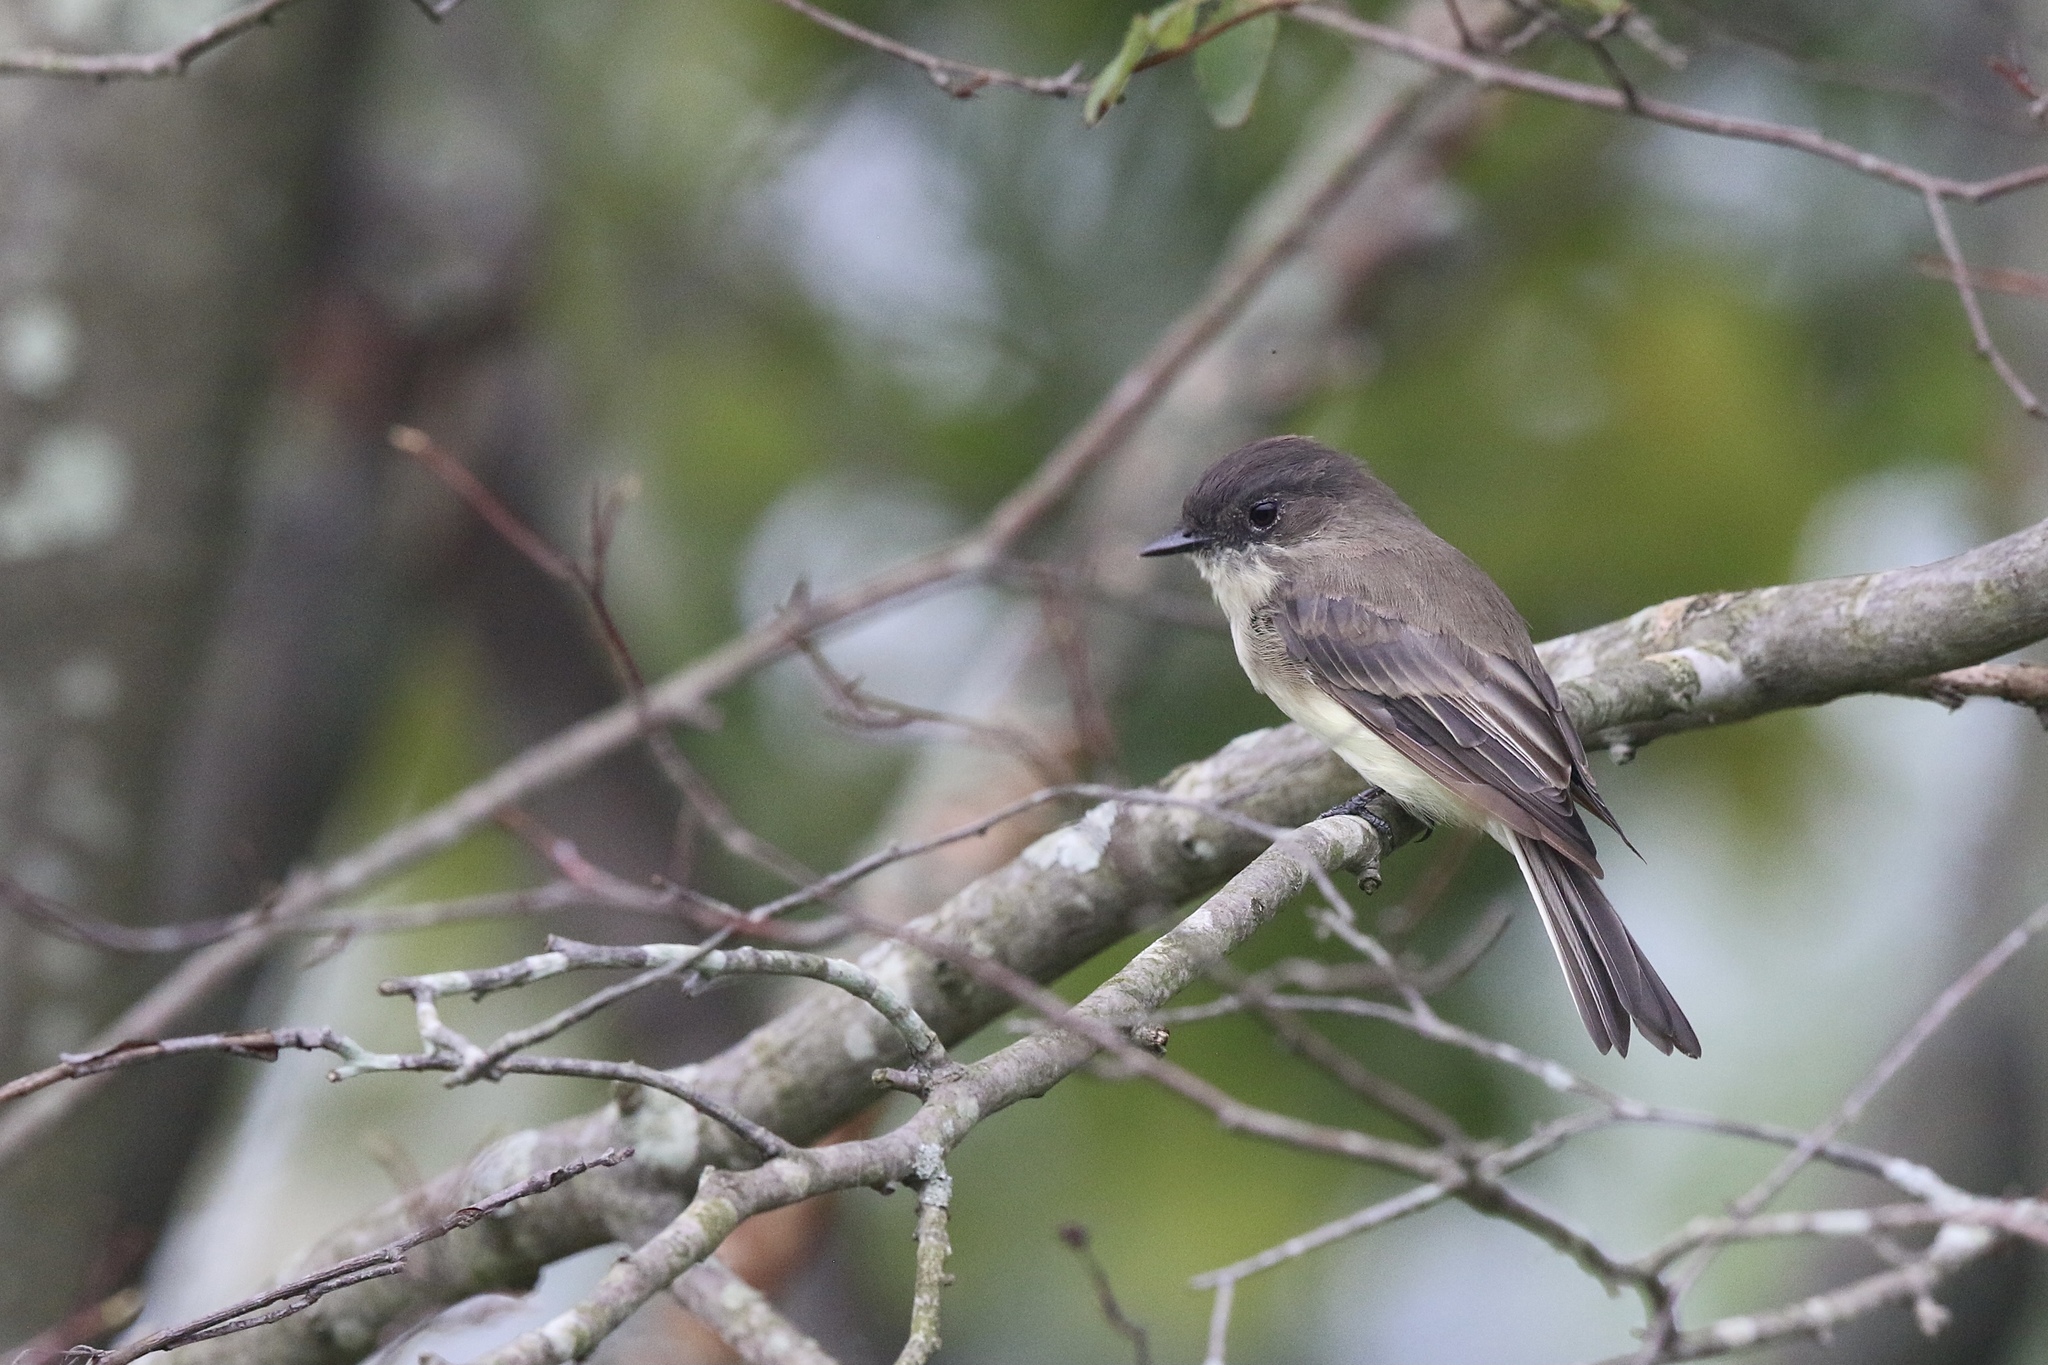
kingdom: Animalia
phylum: Chordata
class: Aves
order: Passeriformes
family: Tyrannidae
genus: Sayornis
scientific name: Sayornis phoebe
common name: Eastern phoebe
